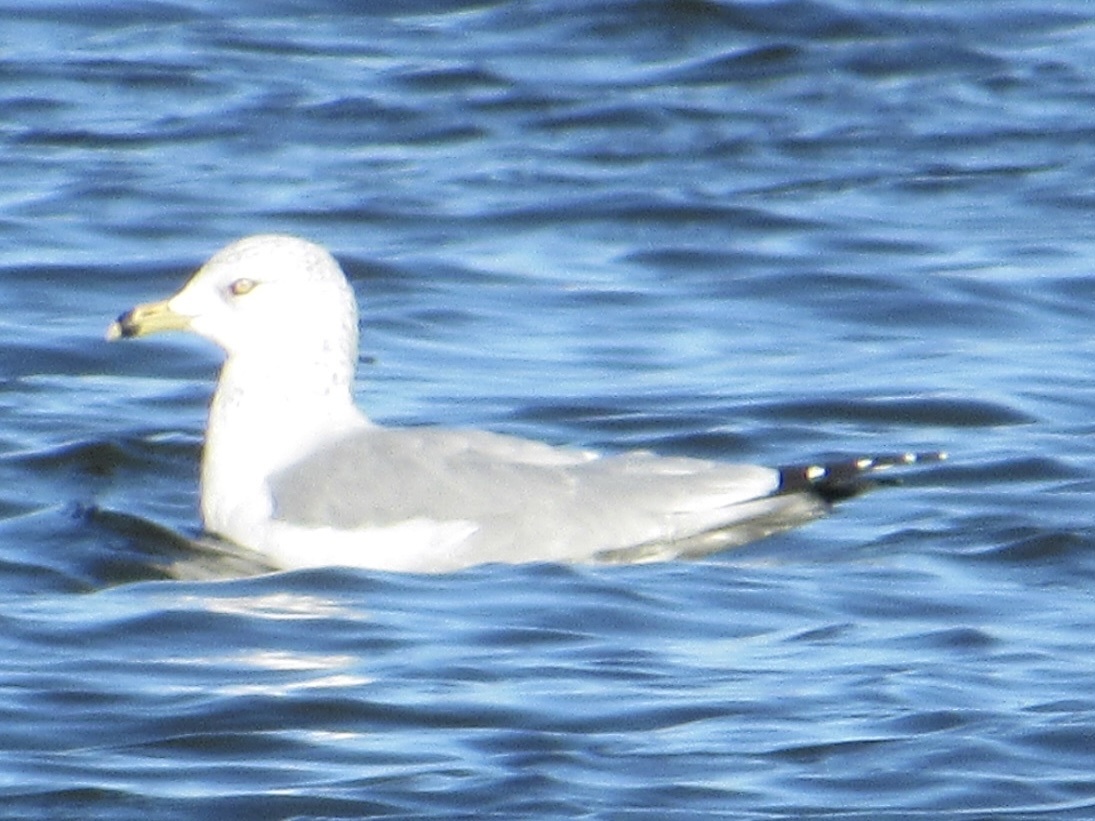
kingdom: Animalia
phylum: Chordata
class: Aves
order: Charadriiformes
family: Laridae
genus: Larus
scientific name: Larus delawarensis
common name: Ring-billed gull
